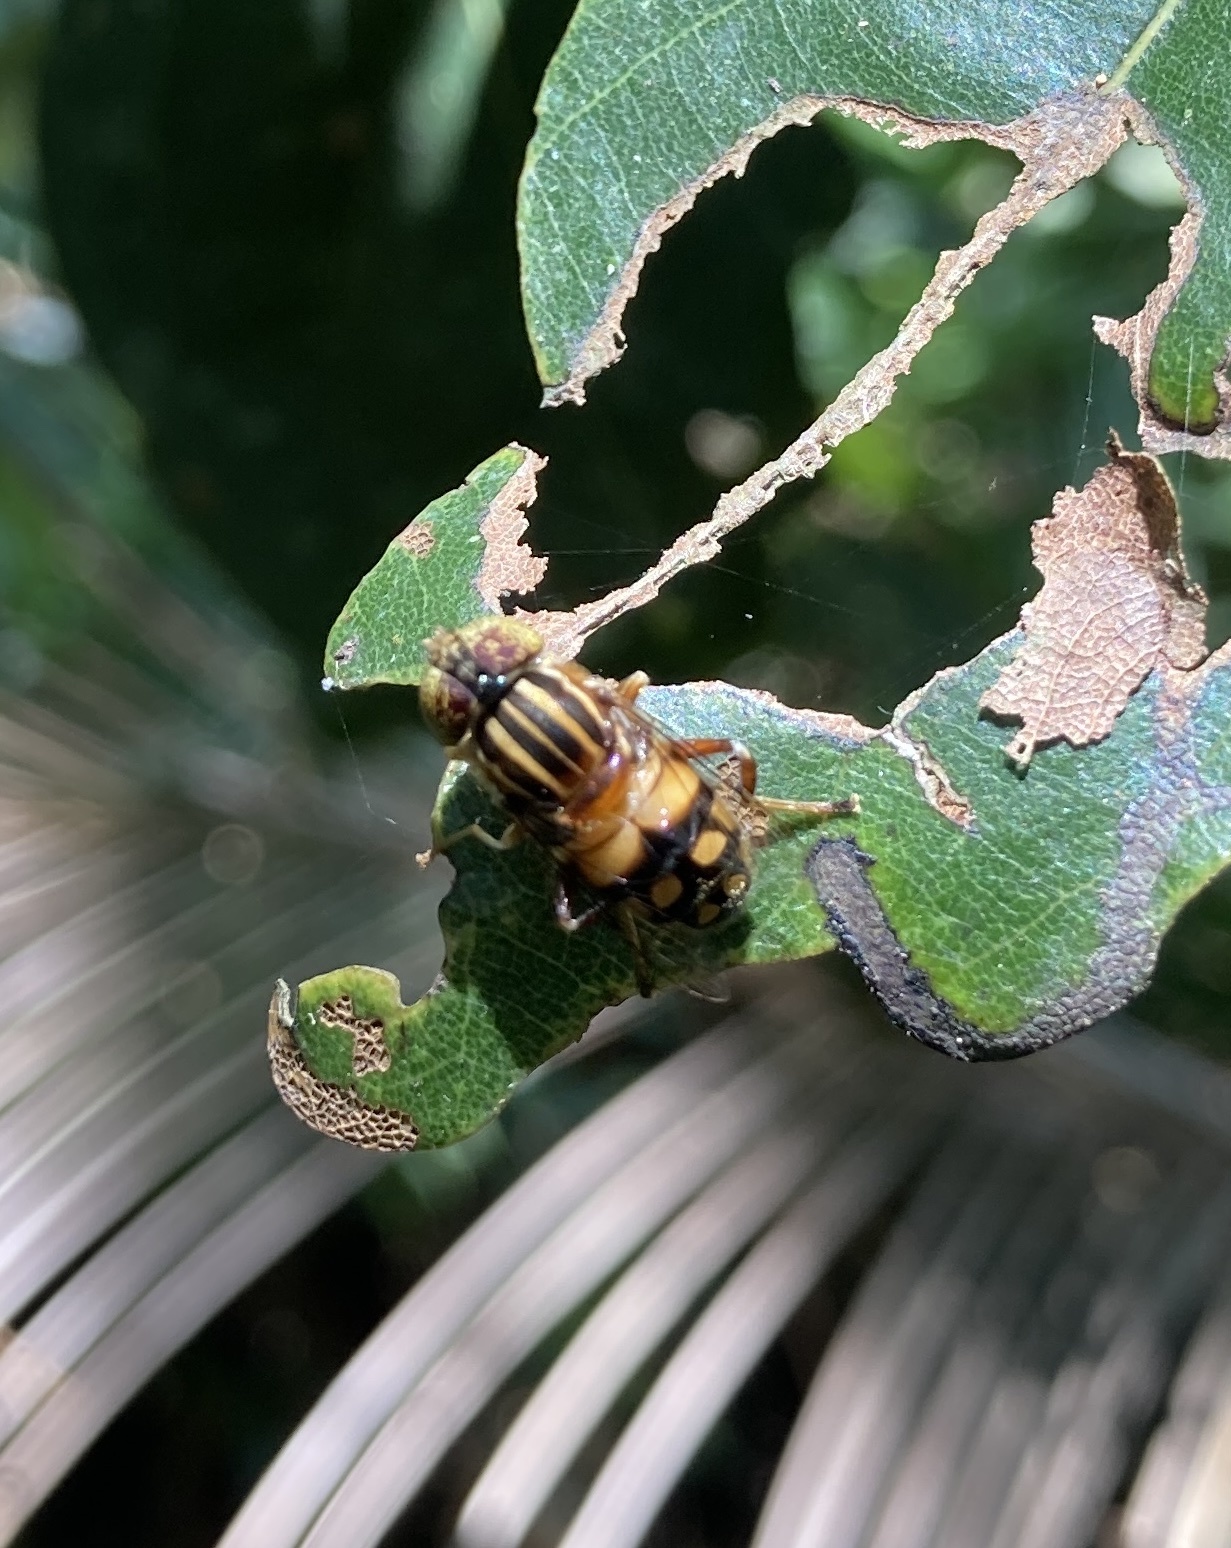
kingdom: Animalia
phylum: Arthropoda
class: Insecta
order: Diptera
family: Syrphidae
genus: Eristalinus
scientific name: Eristalinus punctulatus
